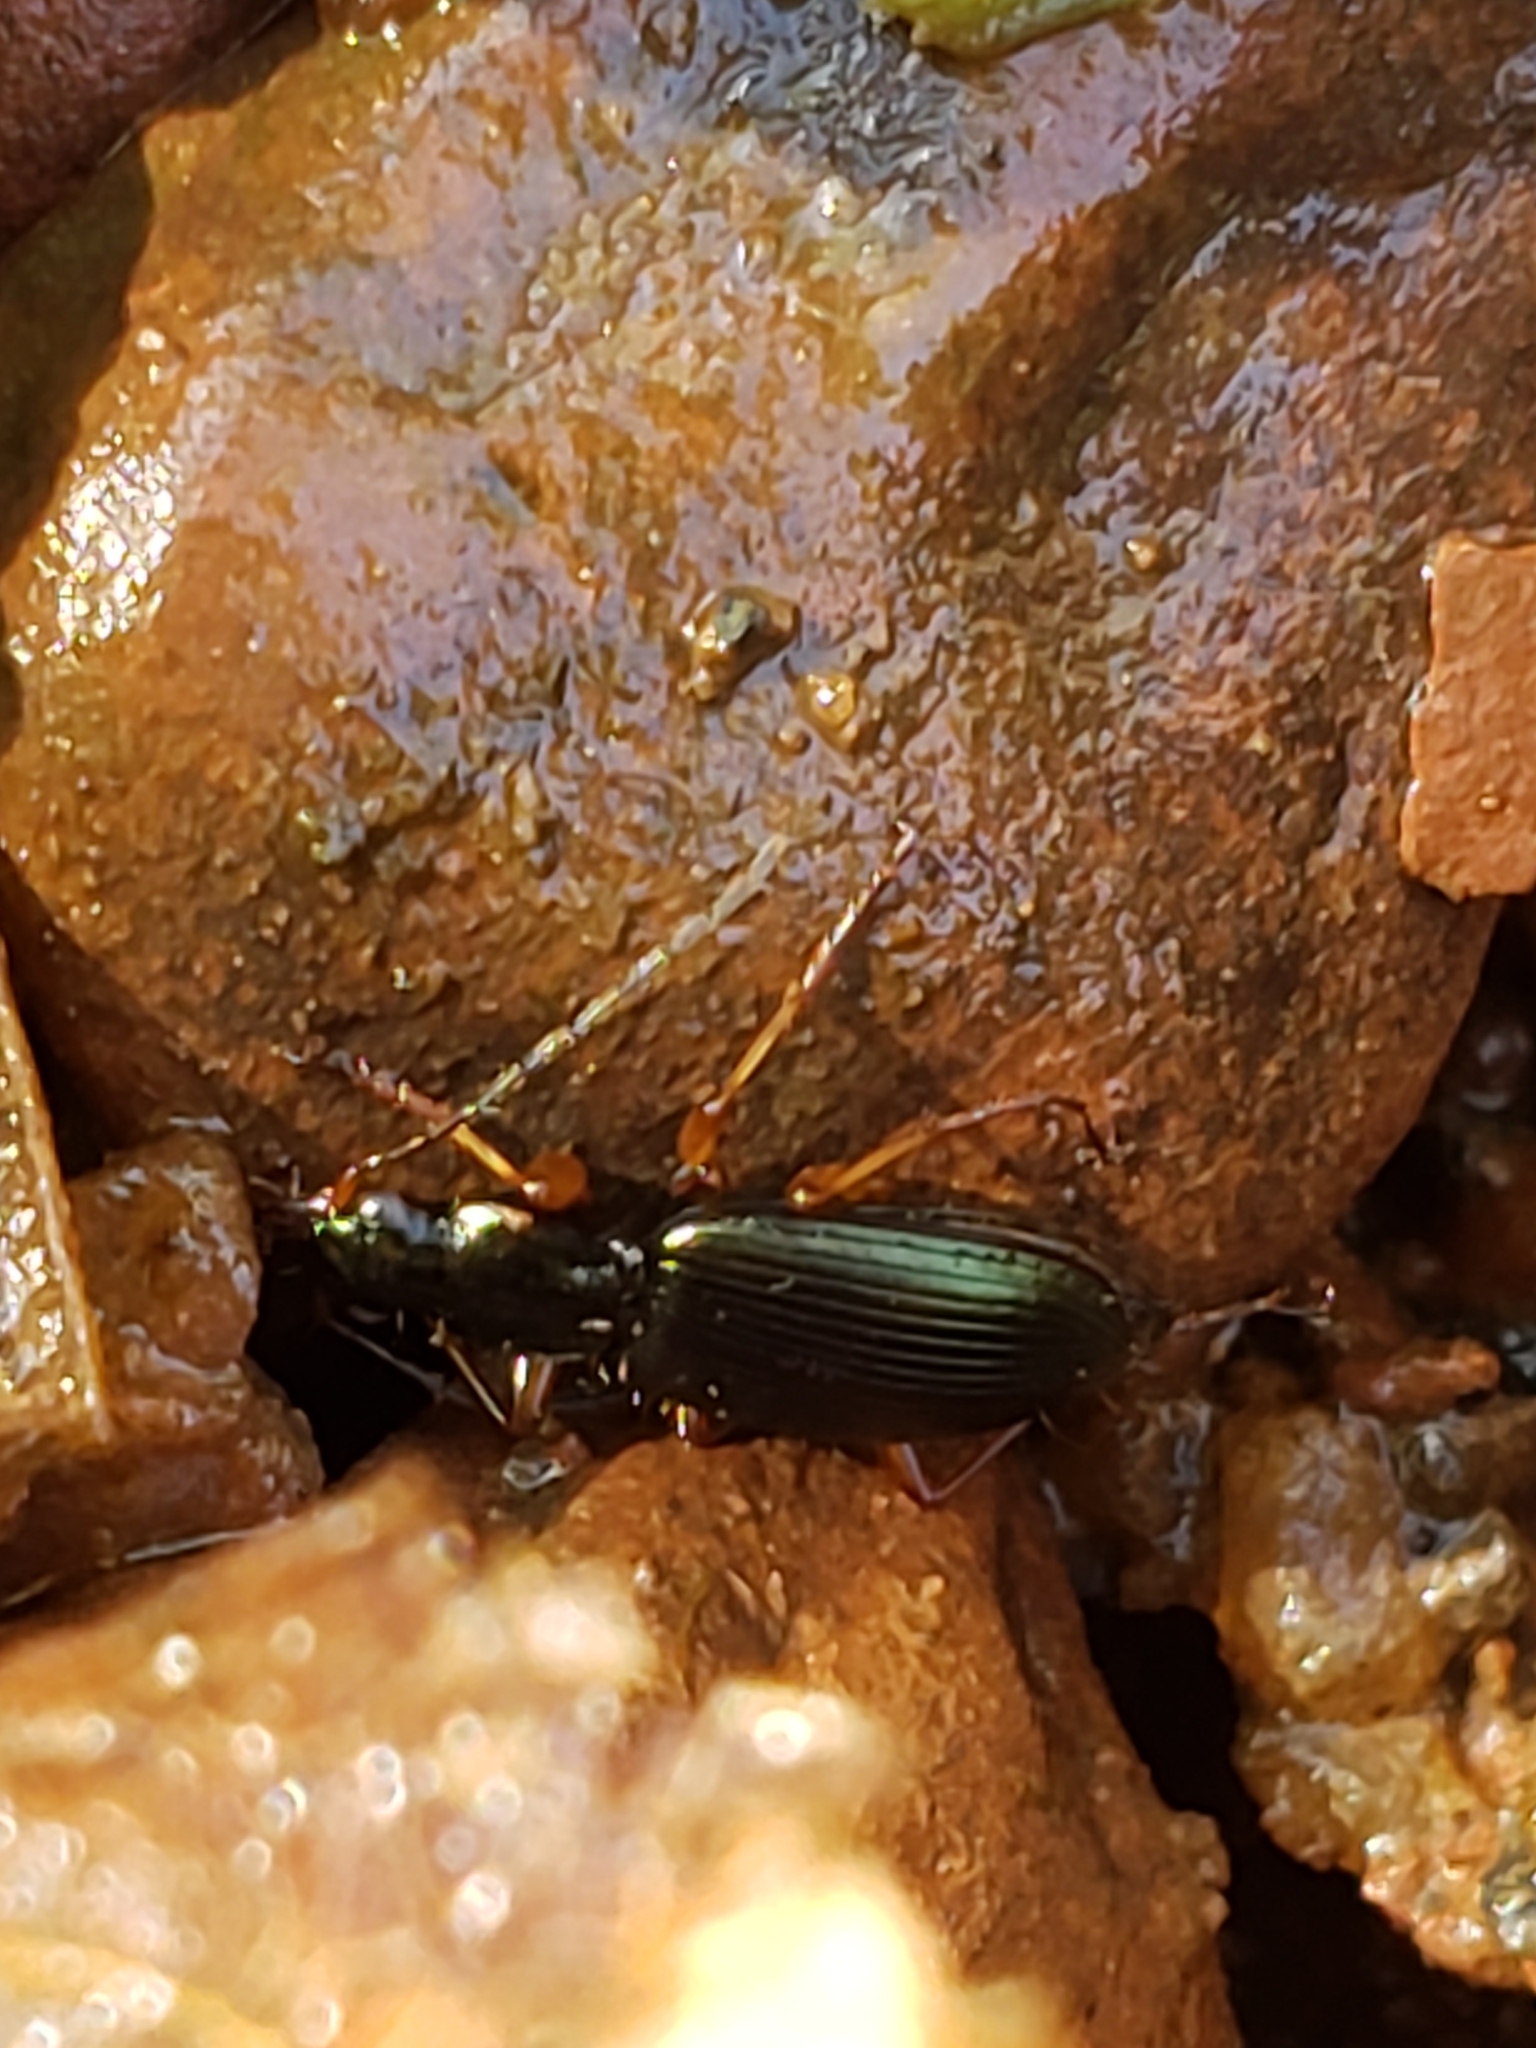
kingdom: Animalia
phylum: Arthropoda
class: Insecta
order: Coleoptera
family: Carabidae
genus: Agonum
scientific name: Agonum extensicolle
